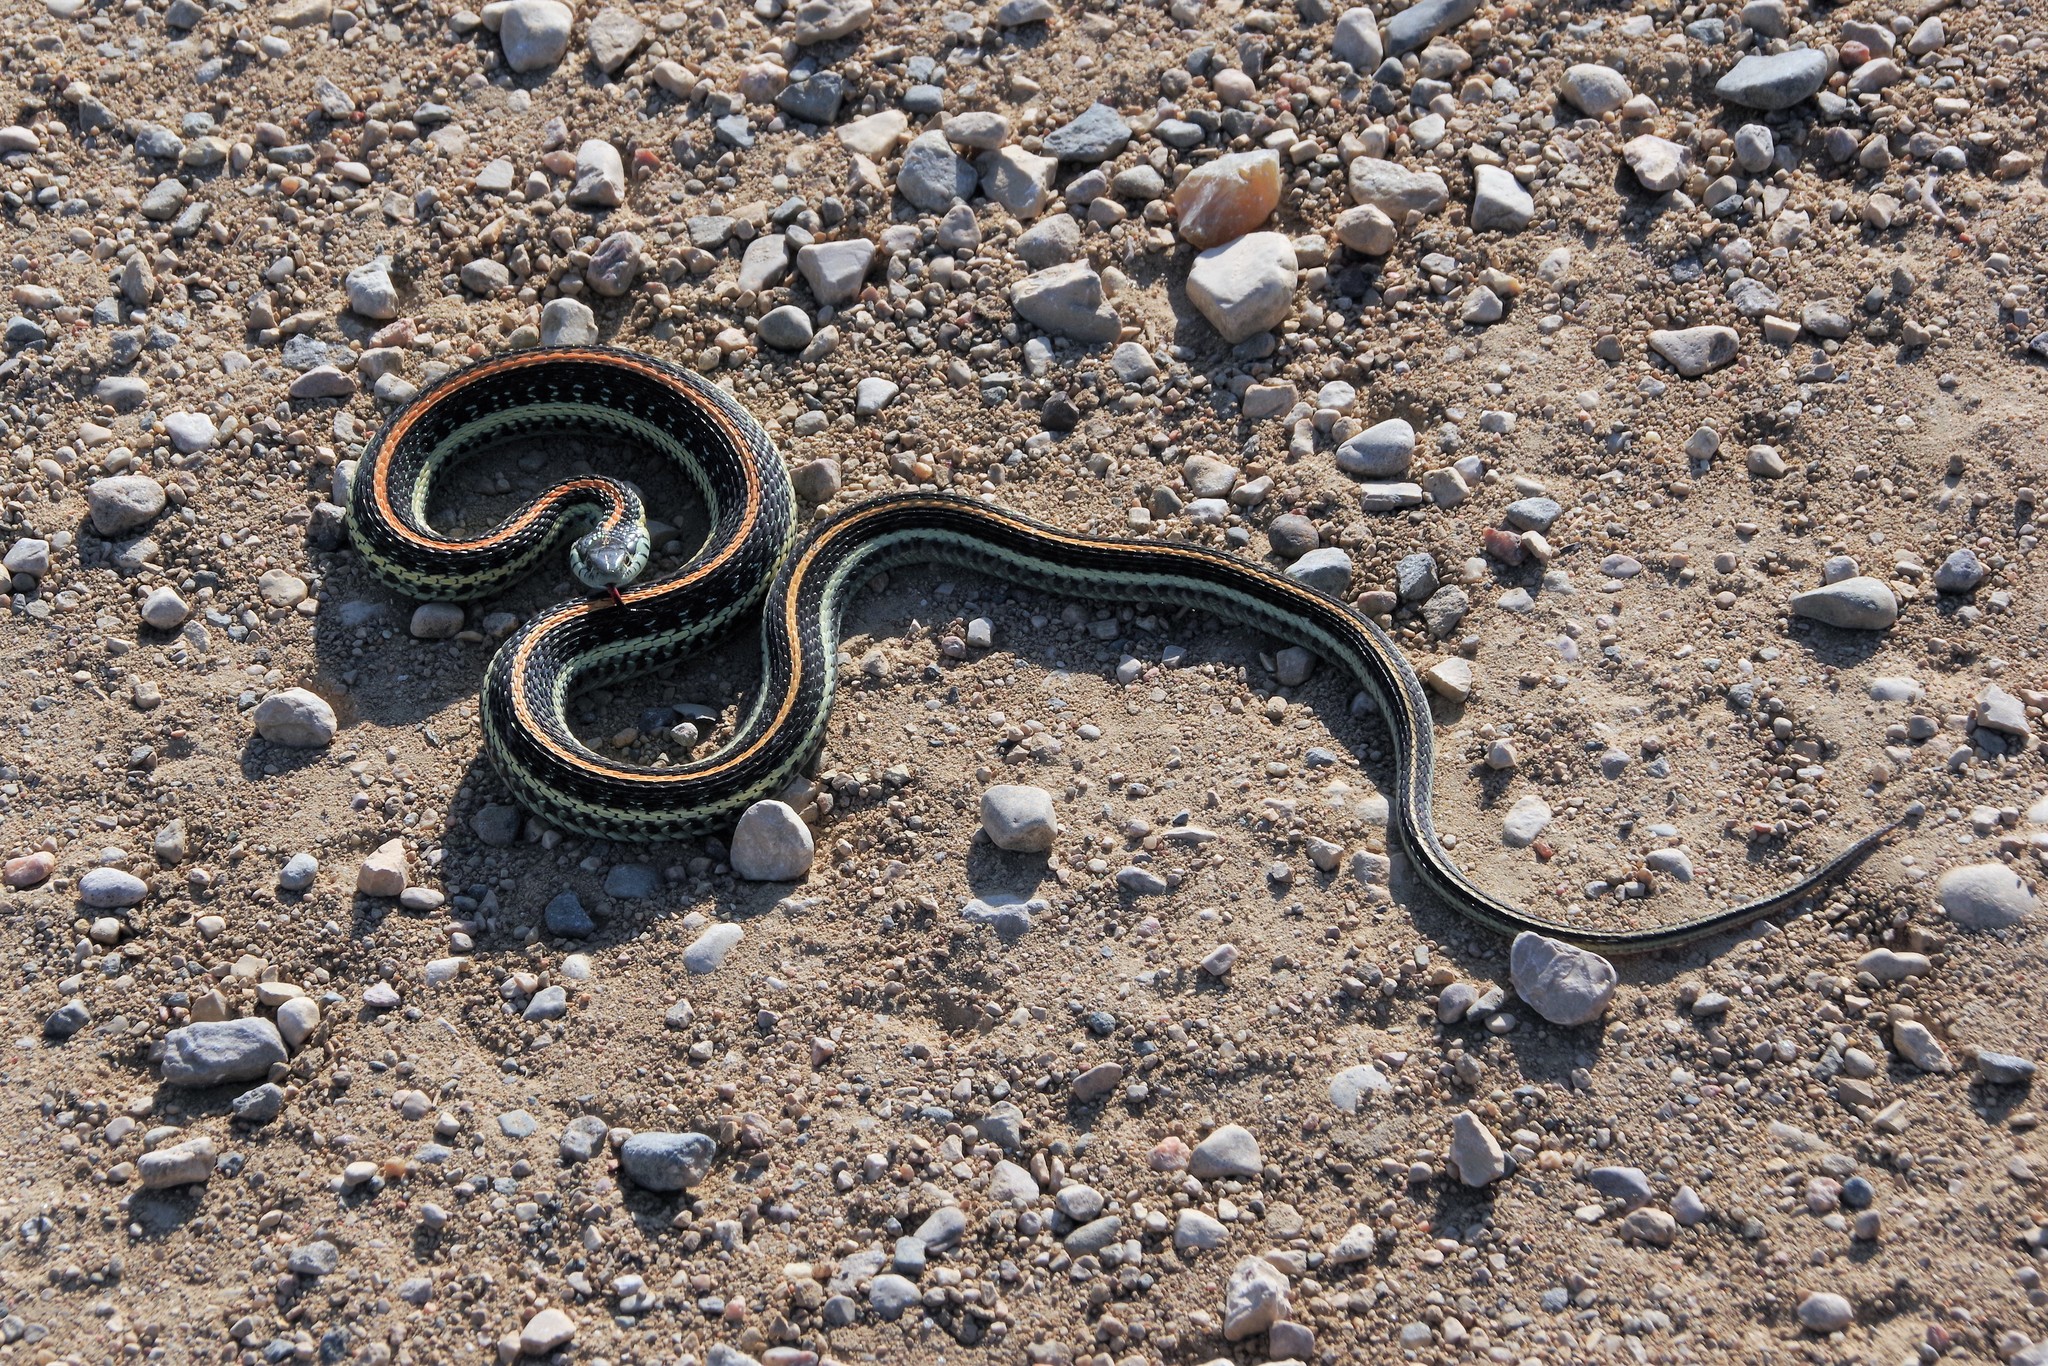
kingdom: Animalia
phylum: Chordata
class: Squamata
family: Colubridae
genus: Thamnophis
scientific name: Thamnophis radix
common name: Plains garter snake
